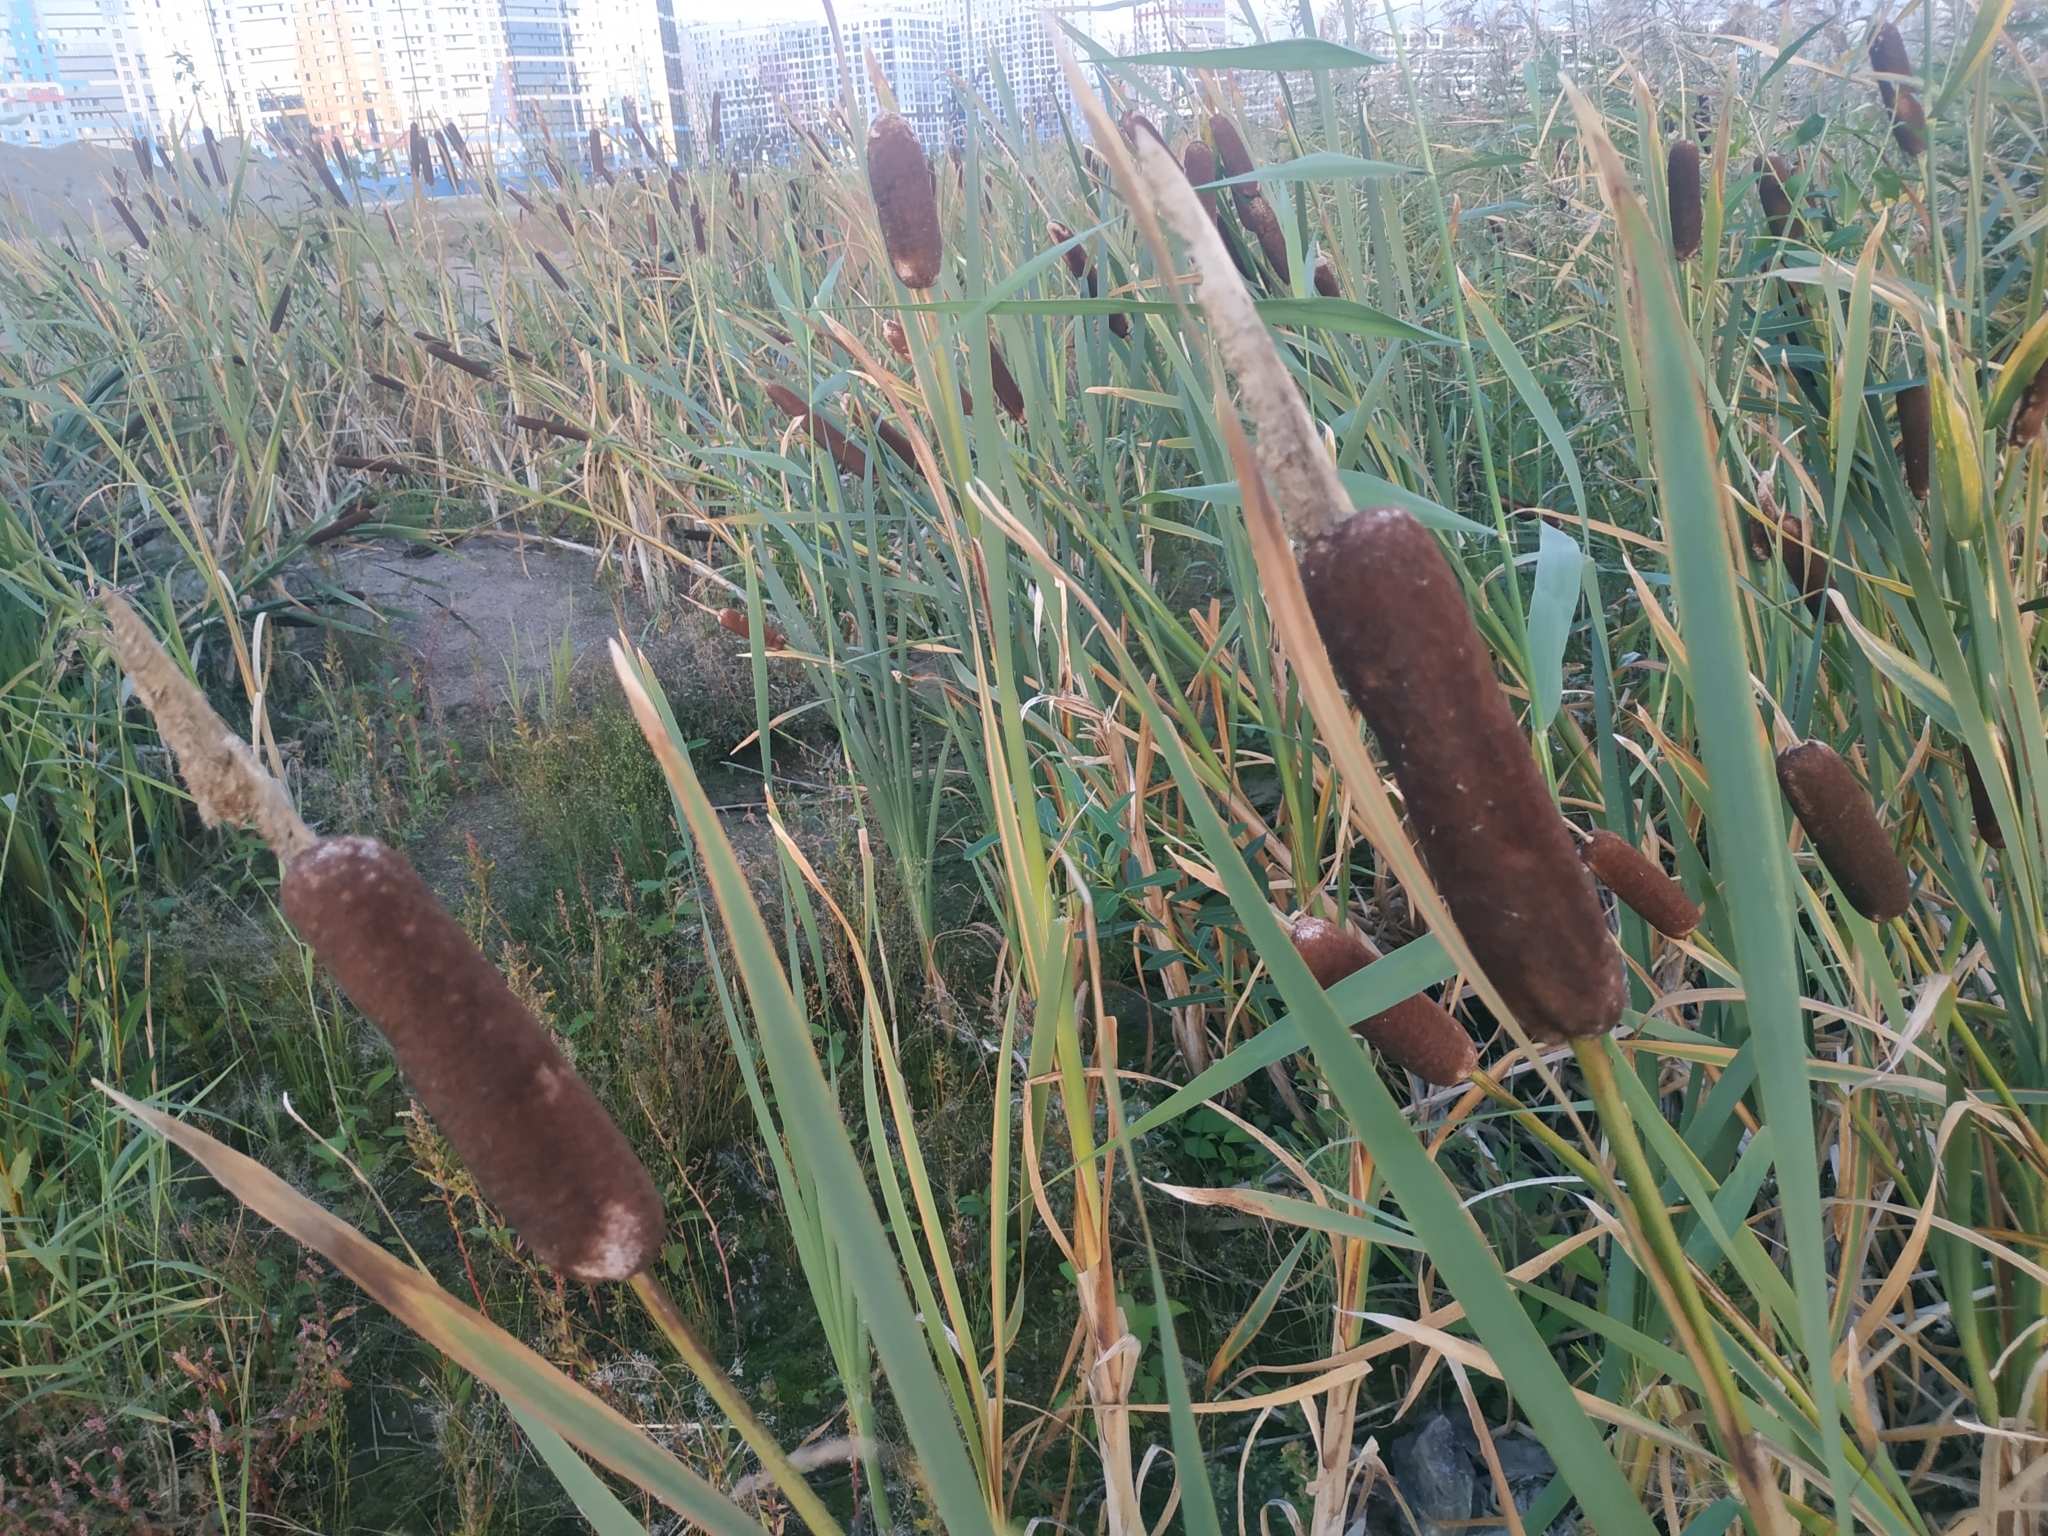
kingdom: Plantae
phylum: Tracheophyta
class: Liliopsida
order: Poales
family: Typhaceae
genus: Typha
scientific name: Typha latifolia
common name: Broadleaf cattail
